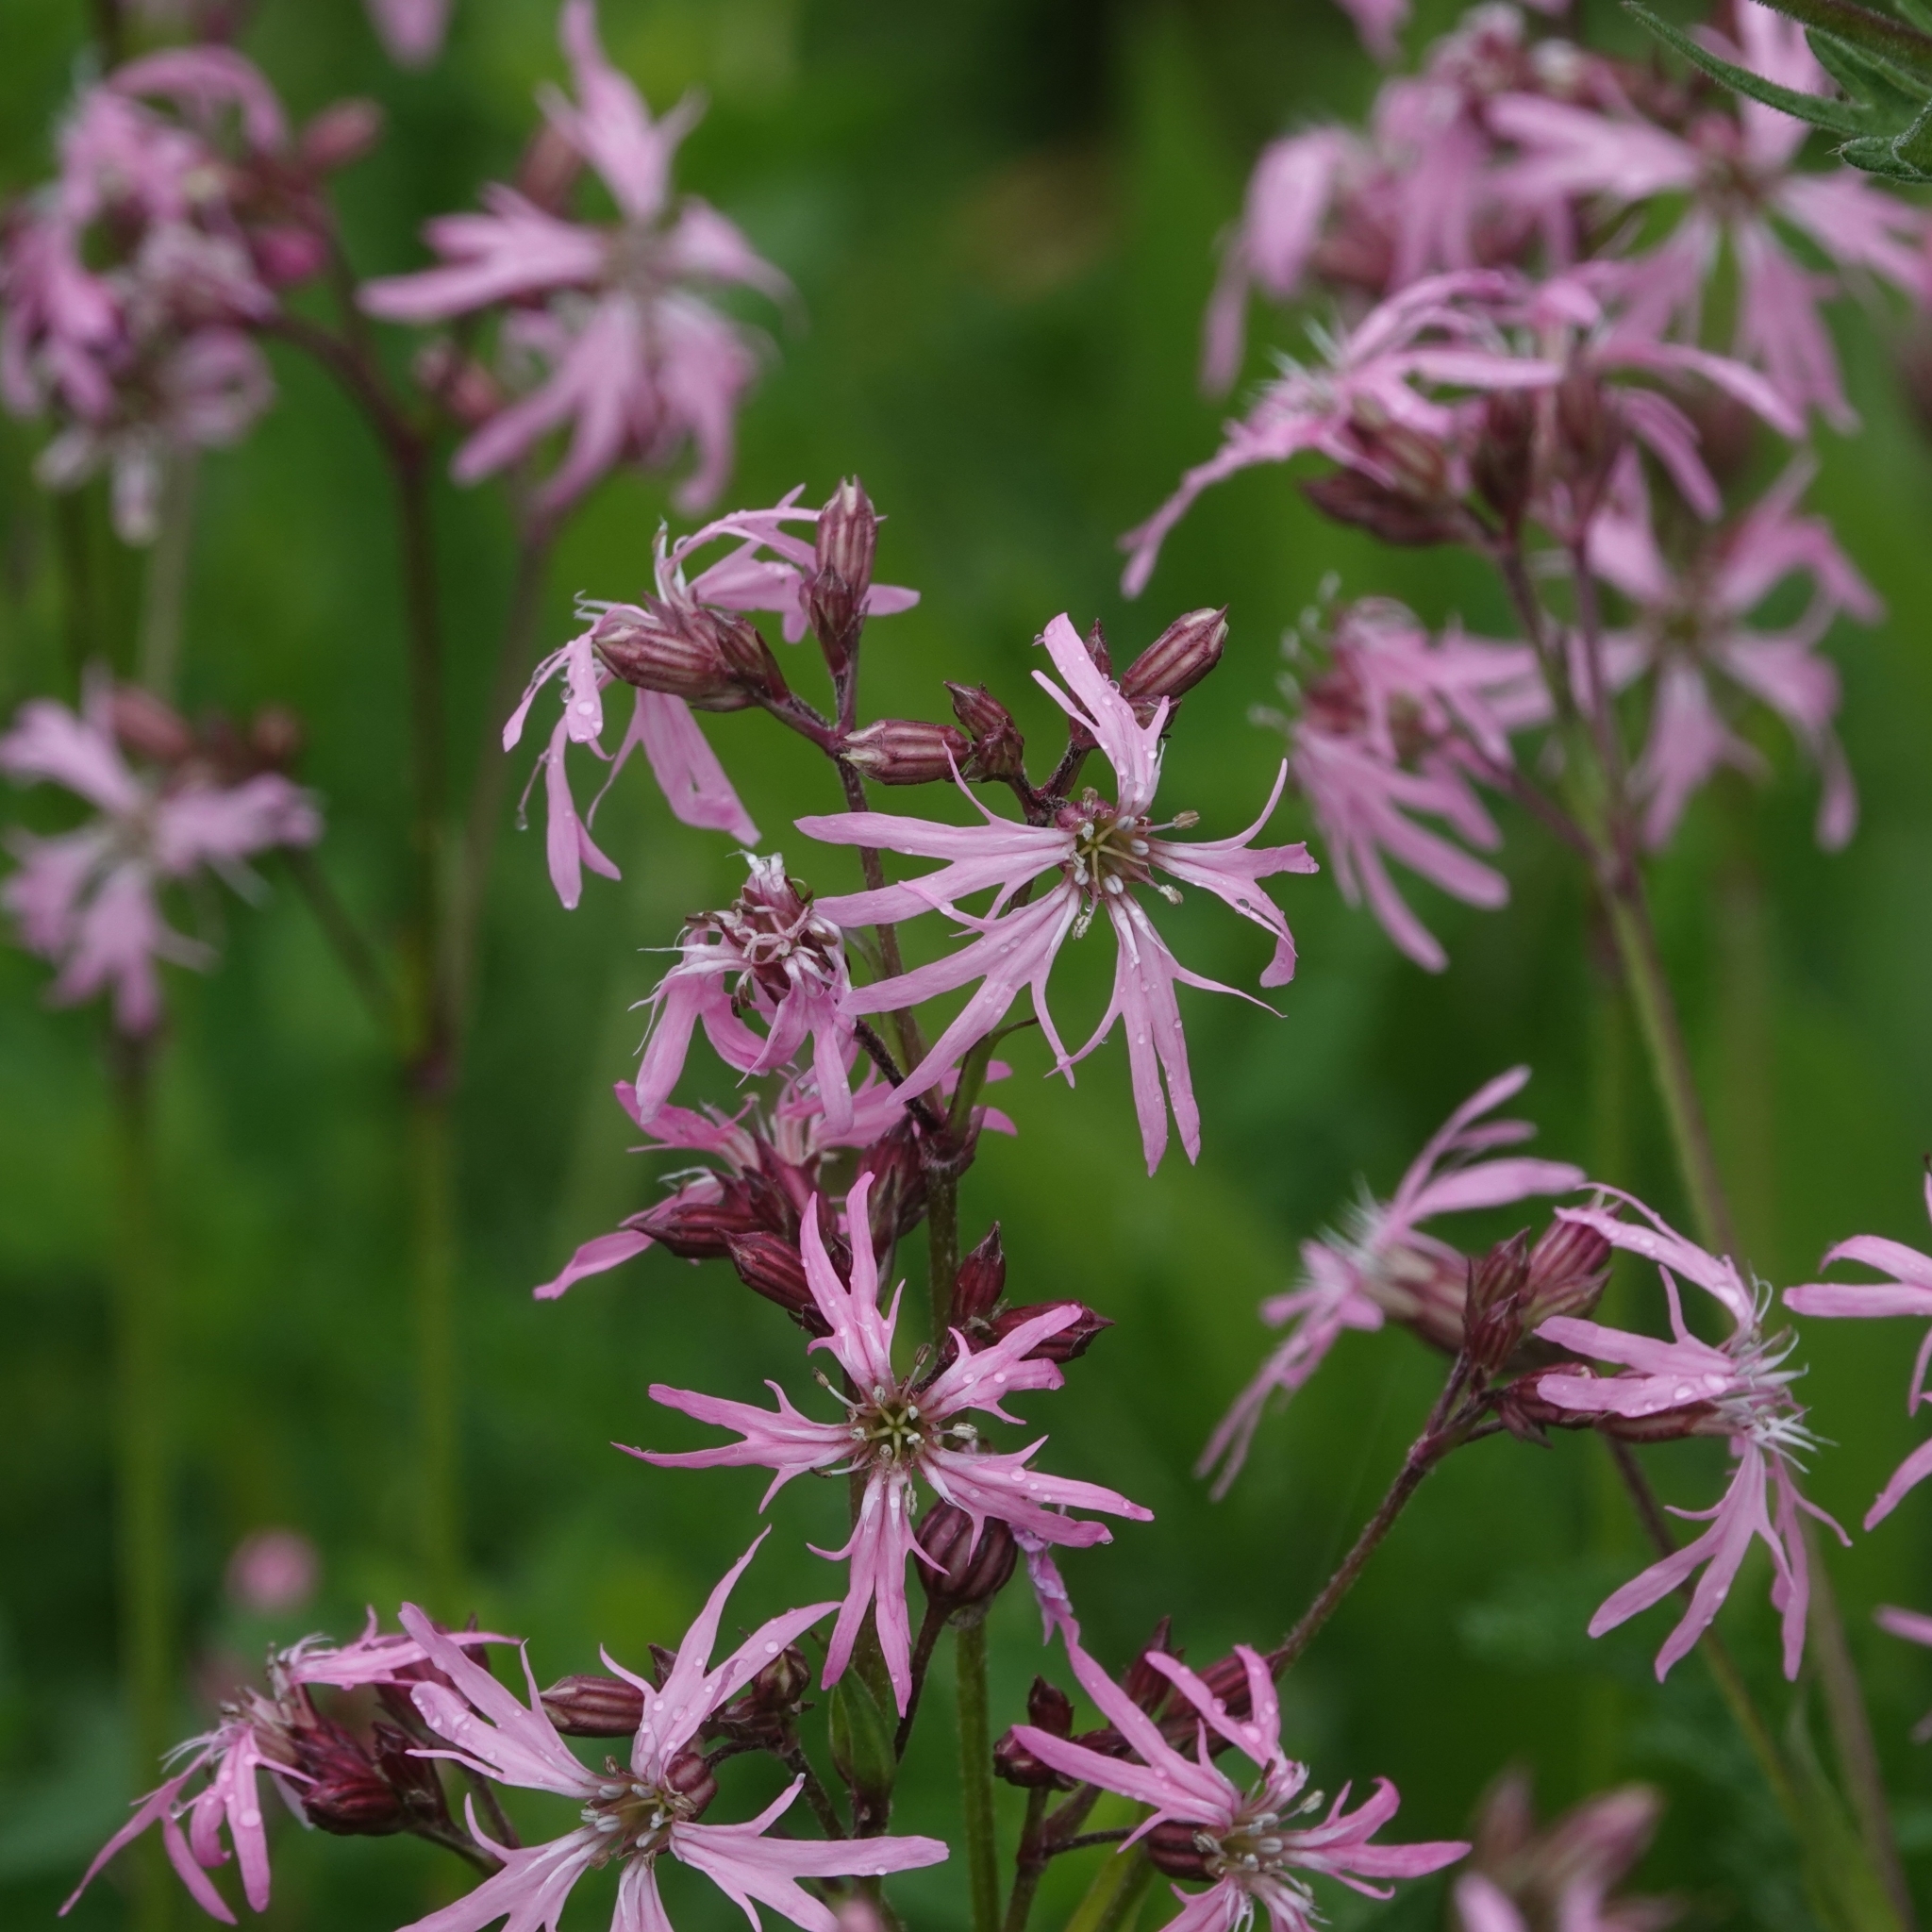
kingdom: Plantae
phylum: Tracheophyta
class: Magnoliopsida
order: Caryophyllales
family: Caryophyllaceae
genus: Silene
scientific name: Silene flos-cuculi
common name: Ragged-robin
